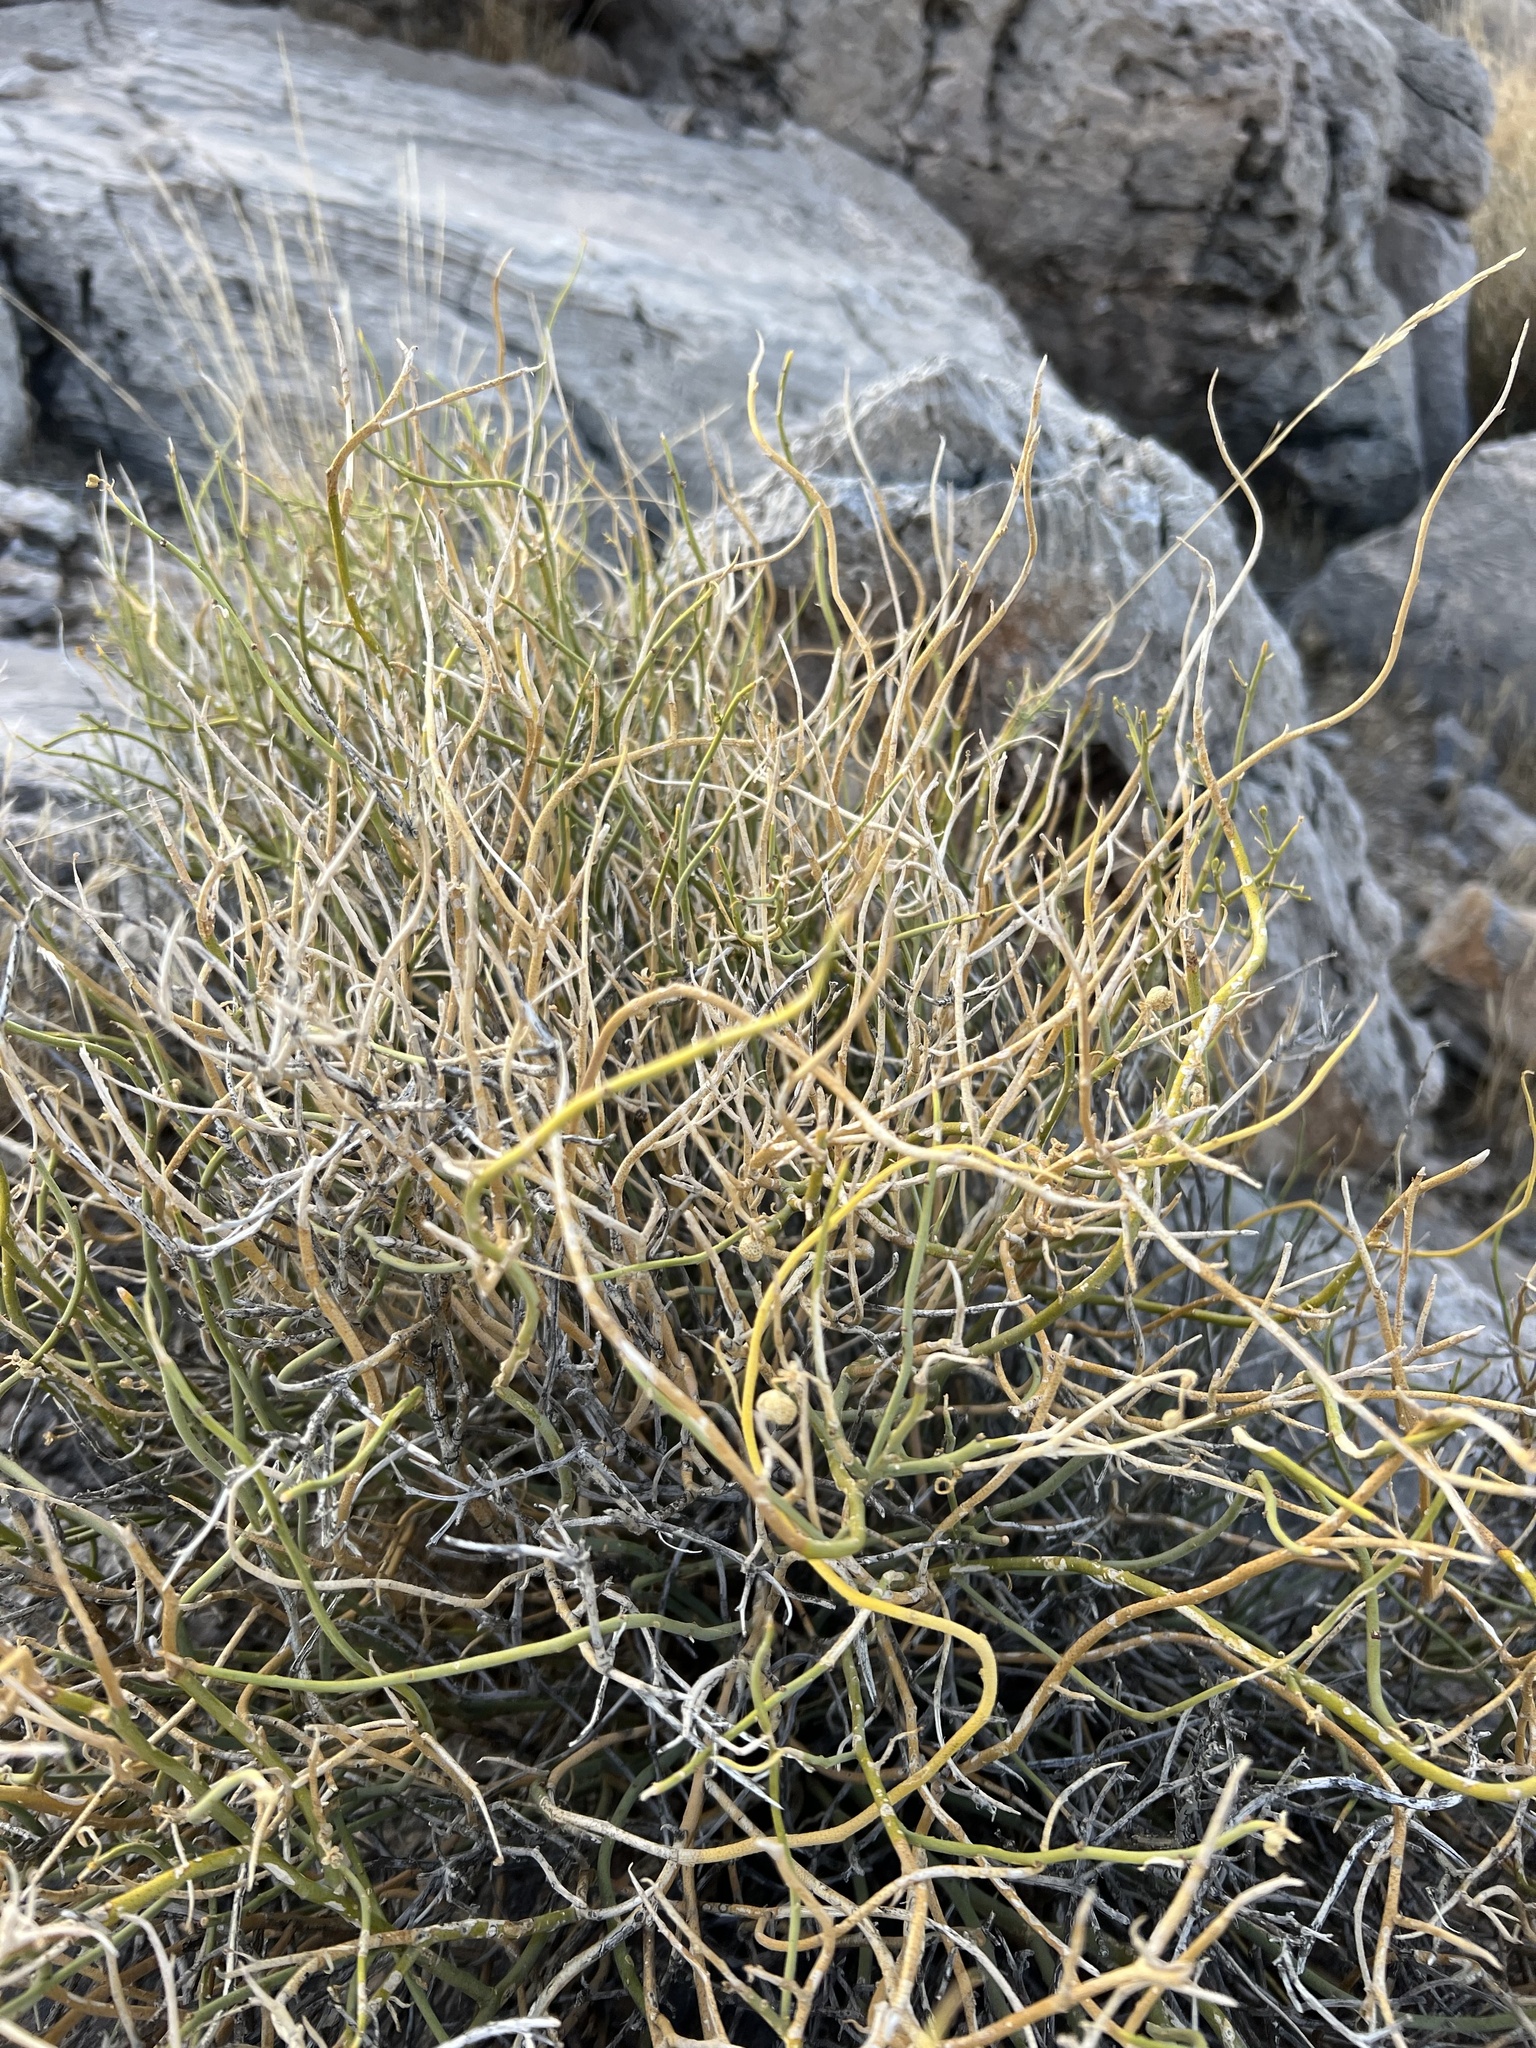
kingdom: Plantae
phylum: Tracheophyta
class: Magnoliopsida
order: Sapindales
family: Rutaceae
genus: Thamnosma
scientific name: Thamnosma montana
